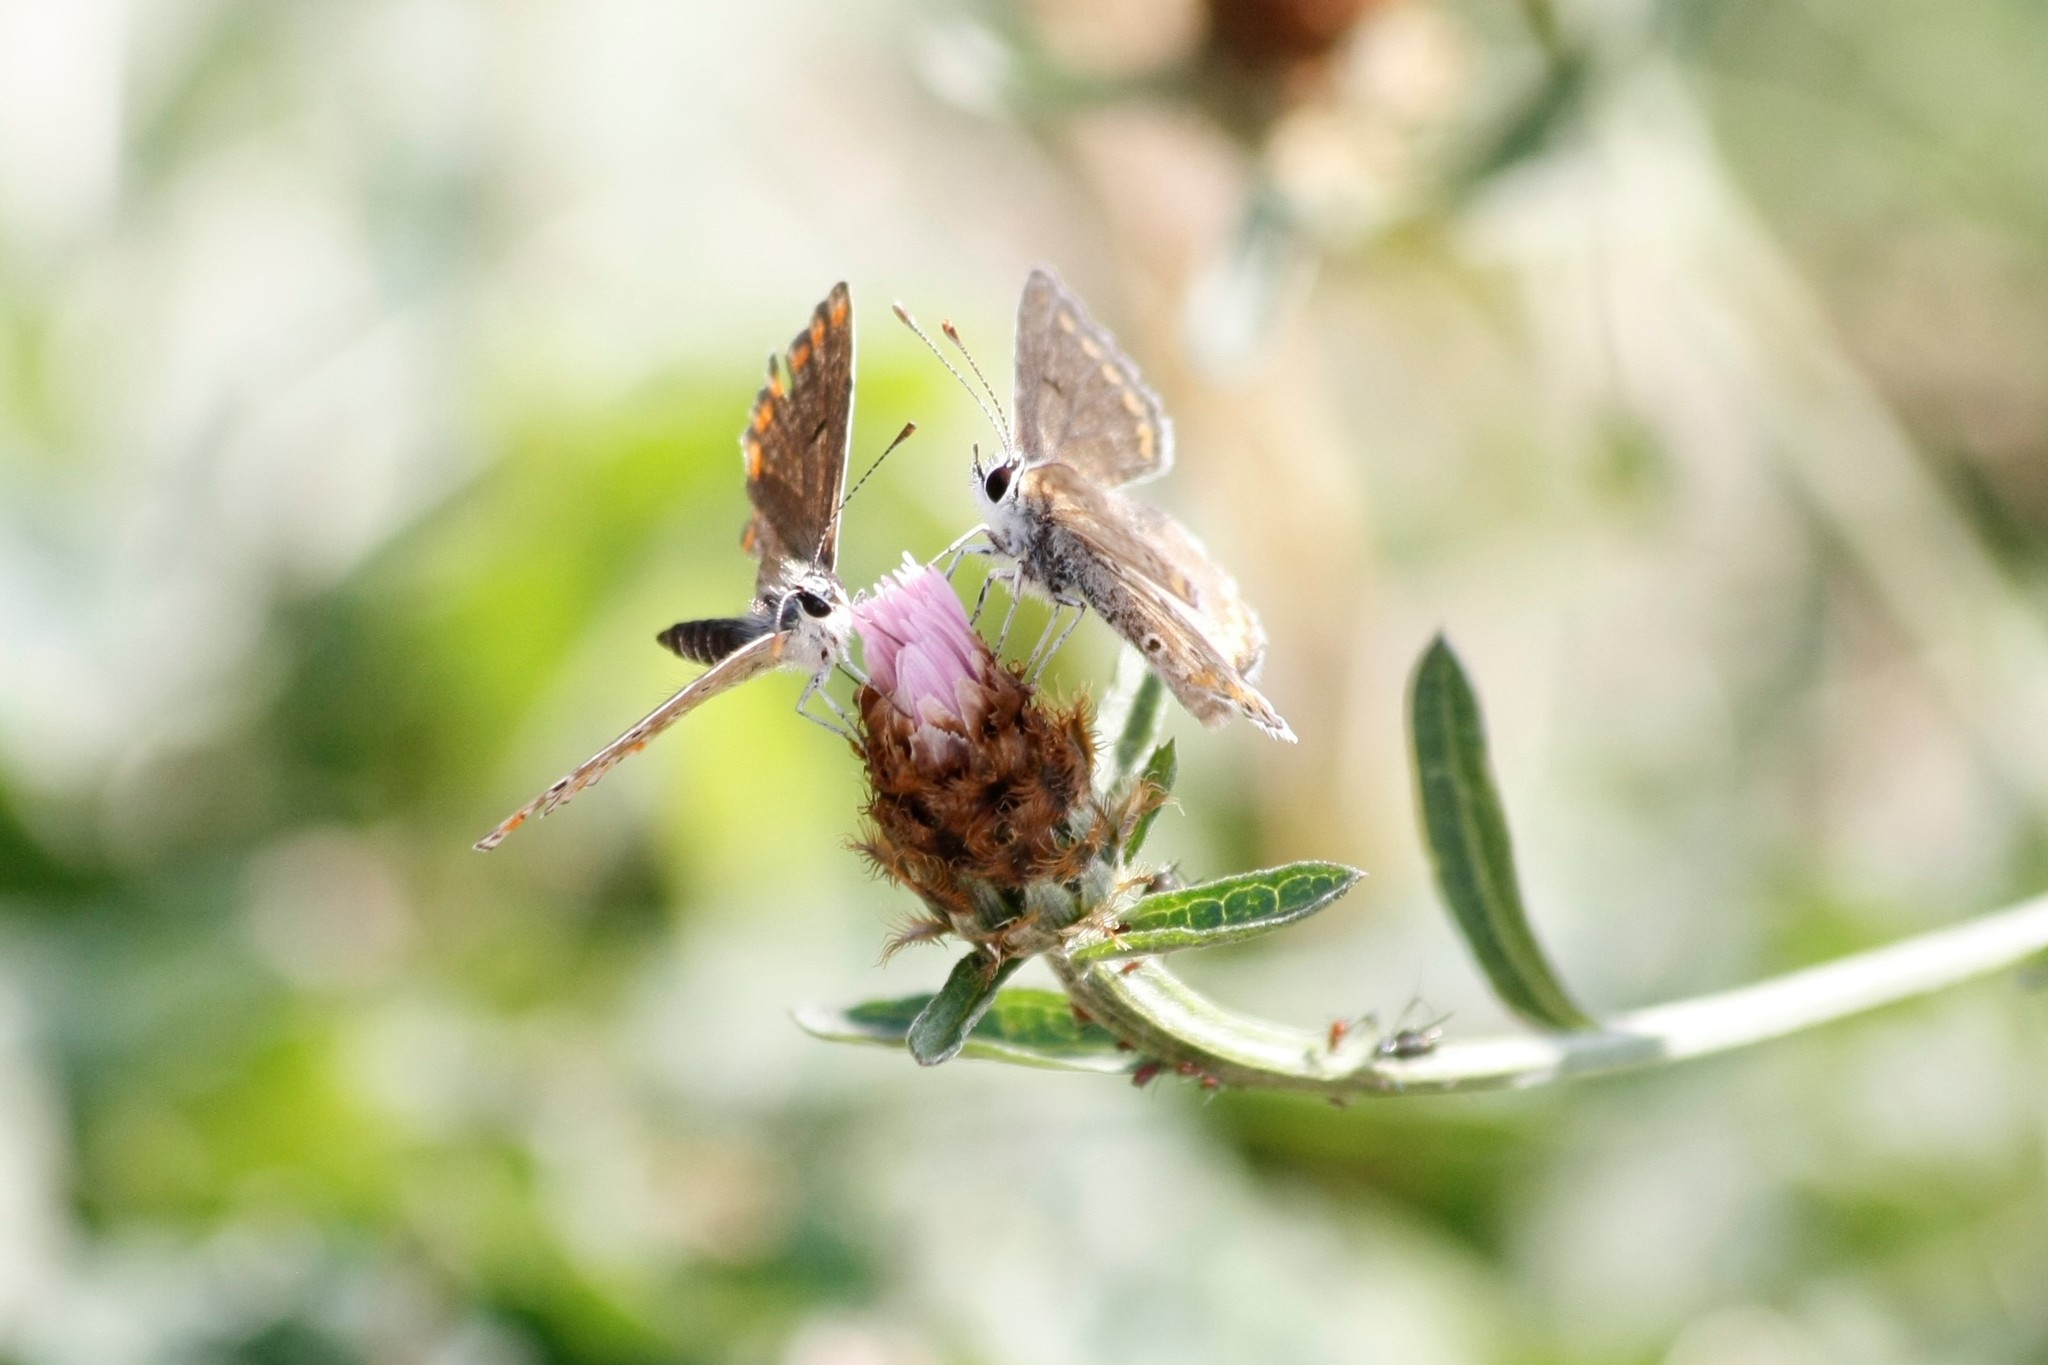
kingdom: Animalia
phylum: Arthropoda
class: Insecta
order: Lepidoptera
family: Lycaenidae
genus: Aricia
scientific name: Aricia agestis
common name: Brown argus
